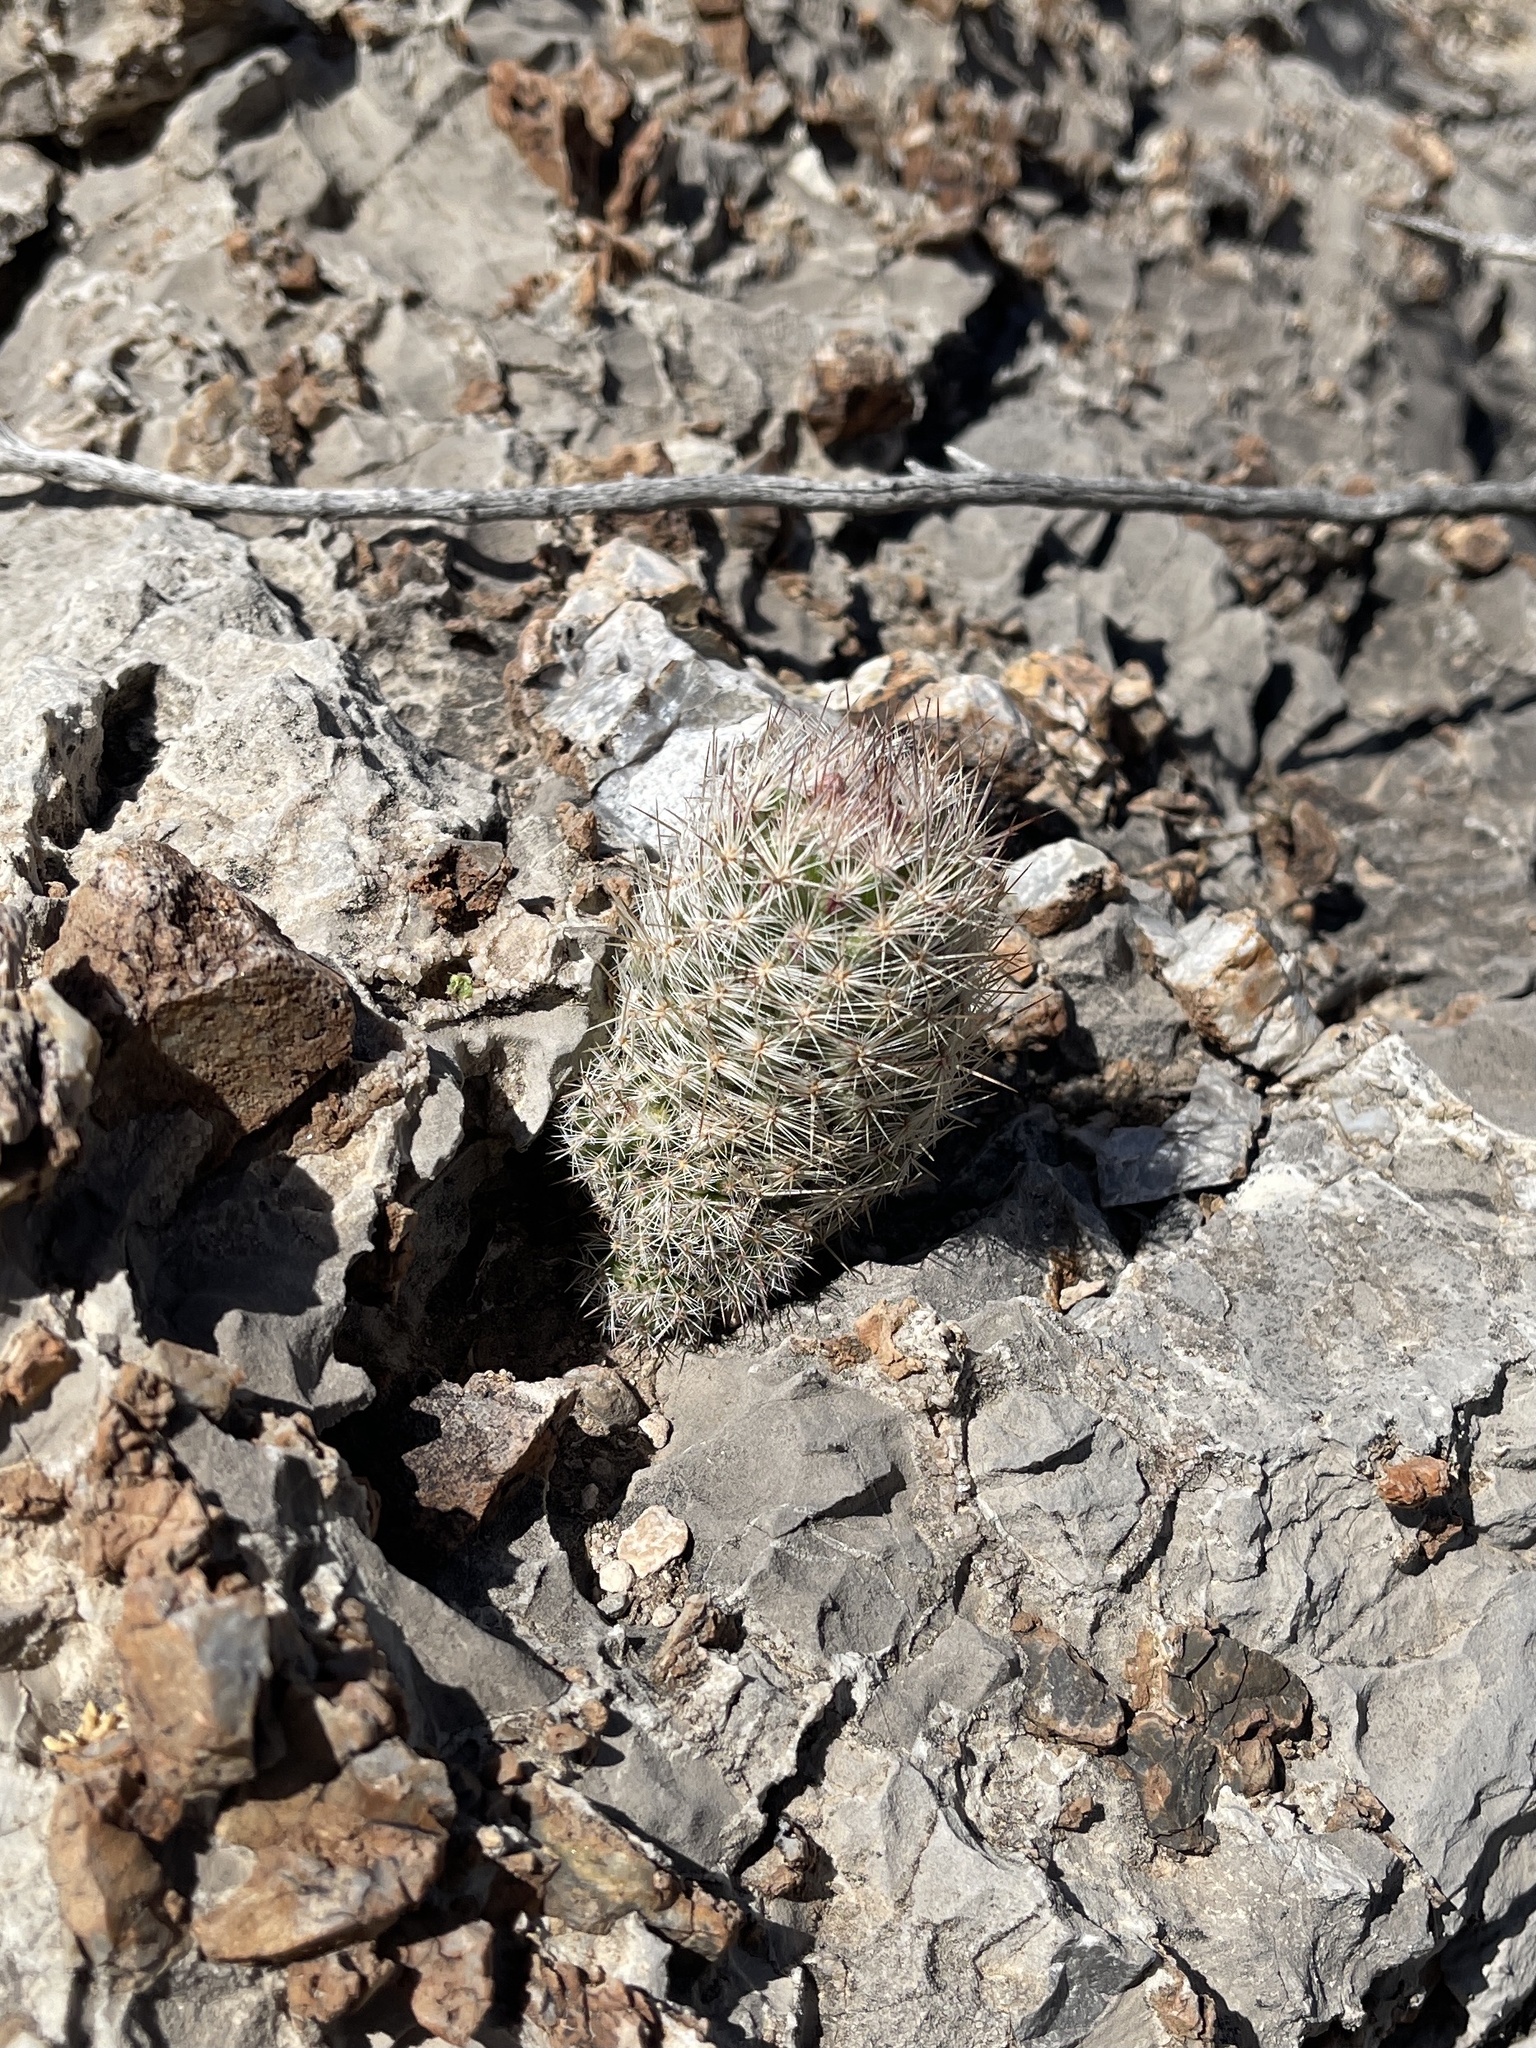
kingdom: Plantae
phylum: Tracheophyta
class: Magnoliopsida
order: Caryophyllales
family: Cactaceae
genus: Pelecyphora
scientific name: Pelecyphora tuberculosa
